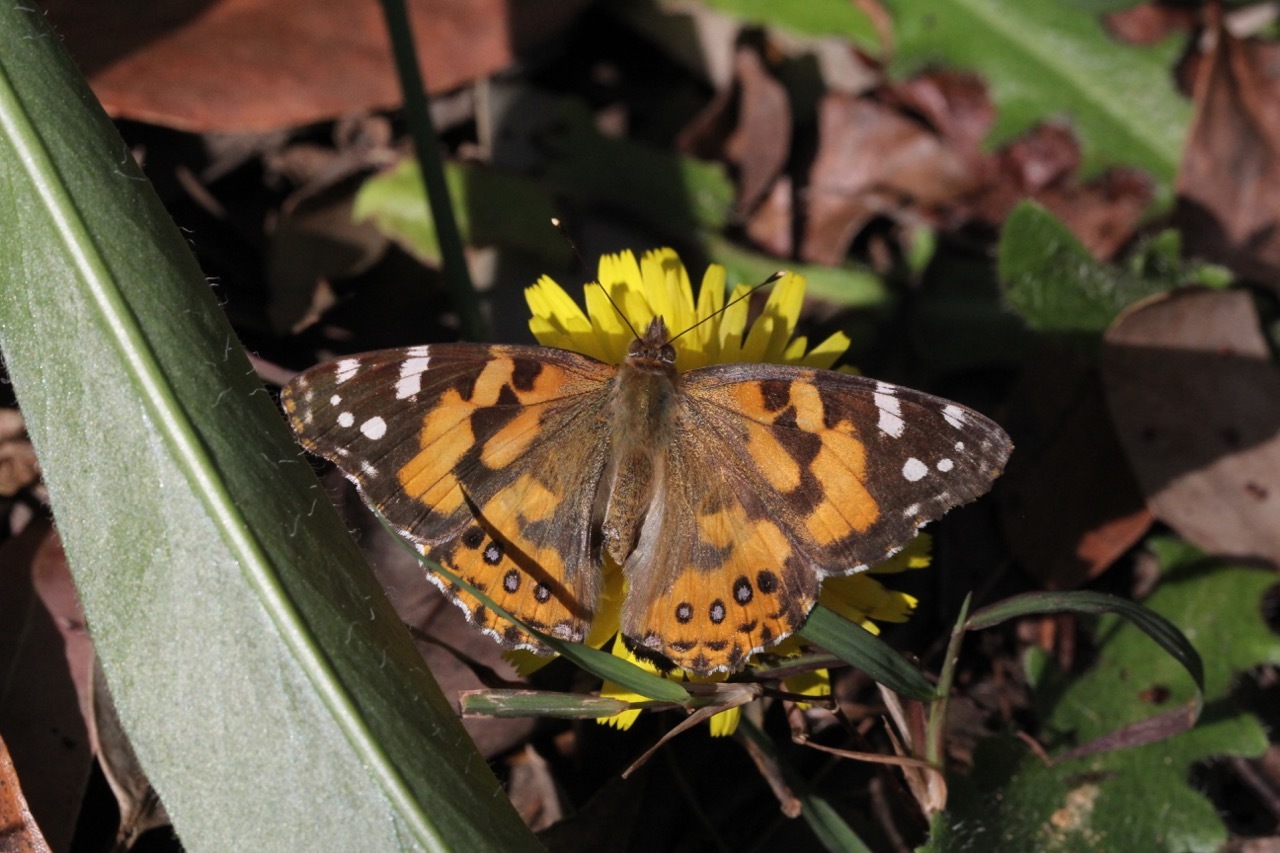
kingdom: Animalia
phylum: Arthropoda
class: Insecta
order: Lepidoptera
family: Nymphalidae
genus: Vanessa
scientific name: Vanessa kershawi
